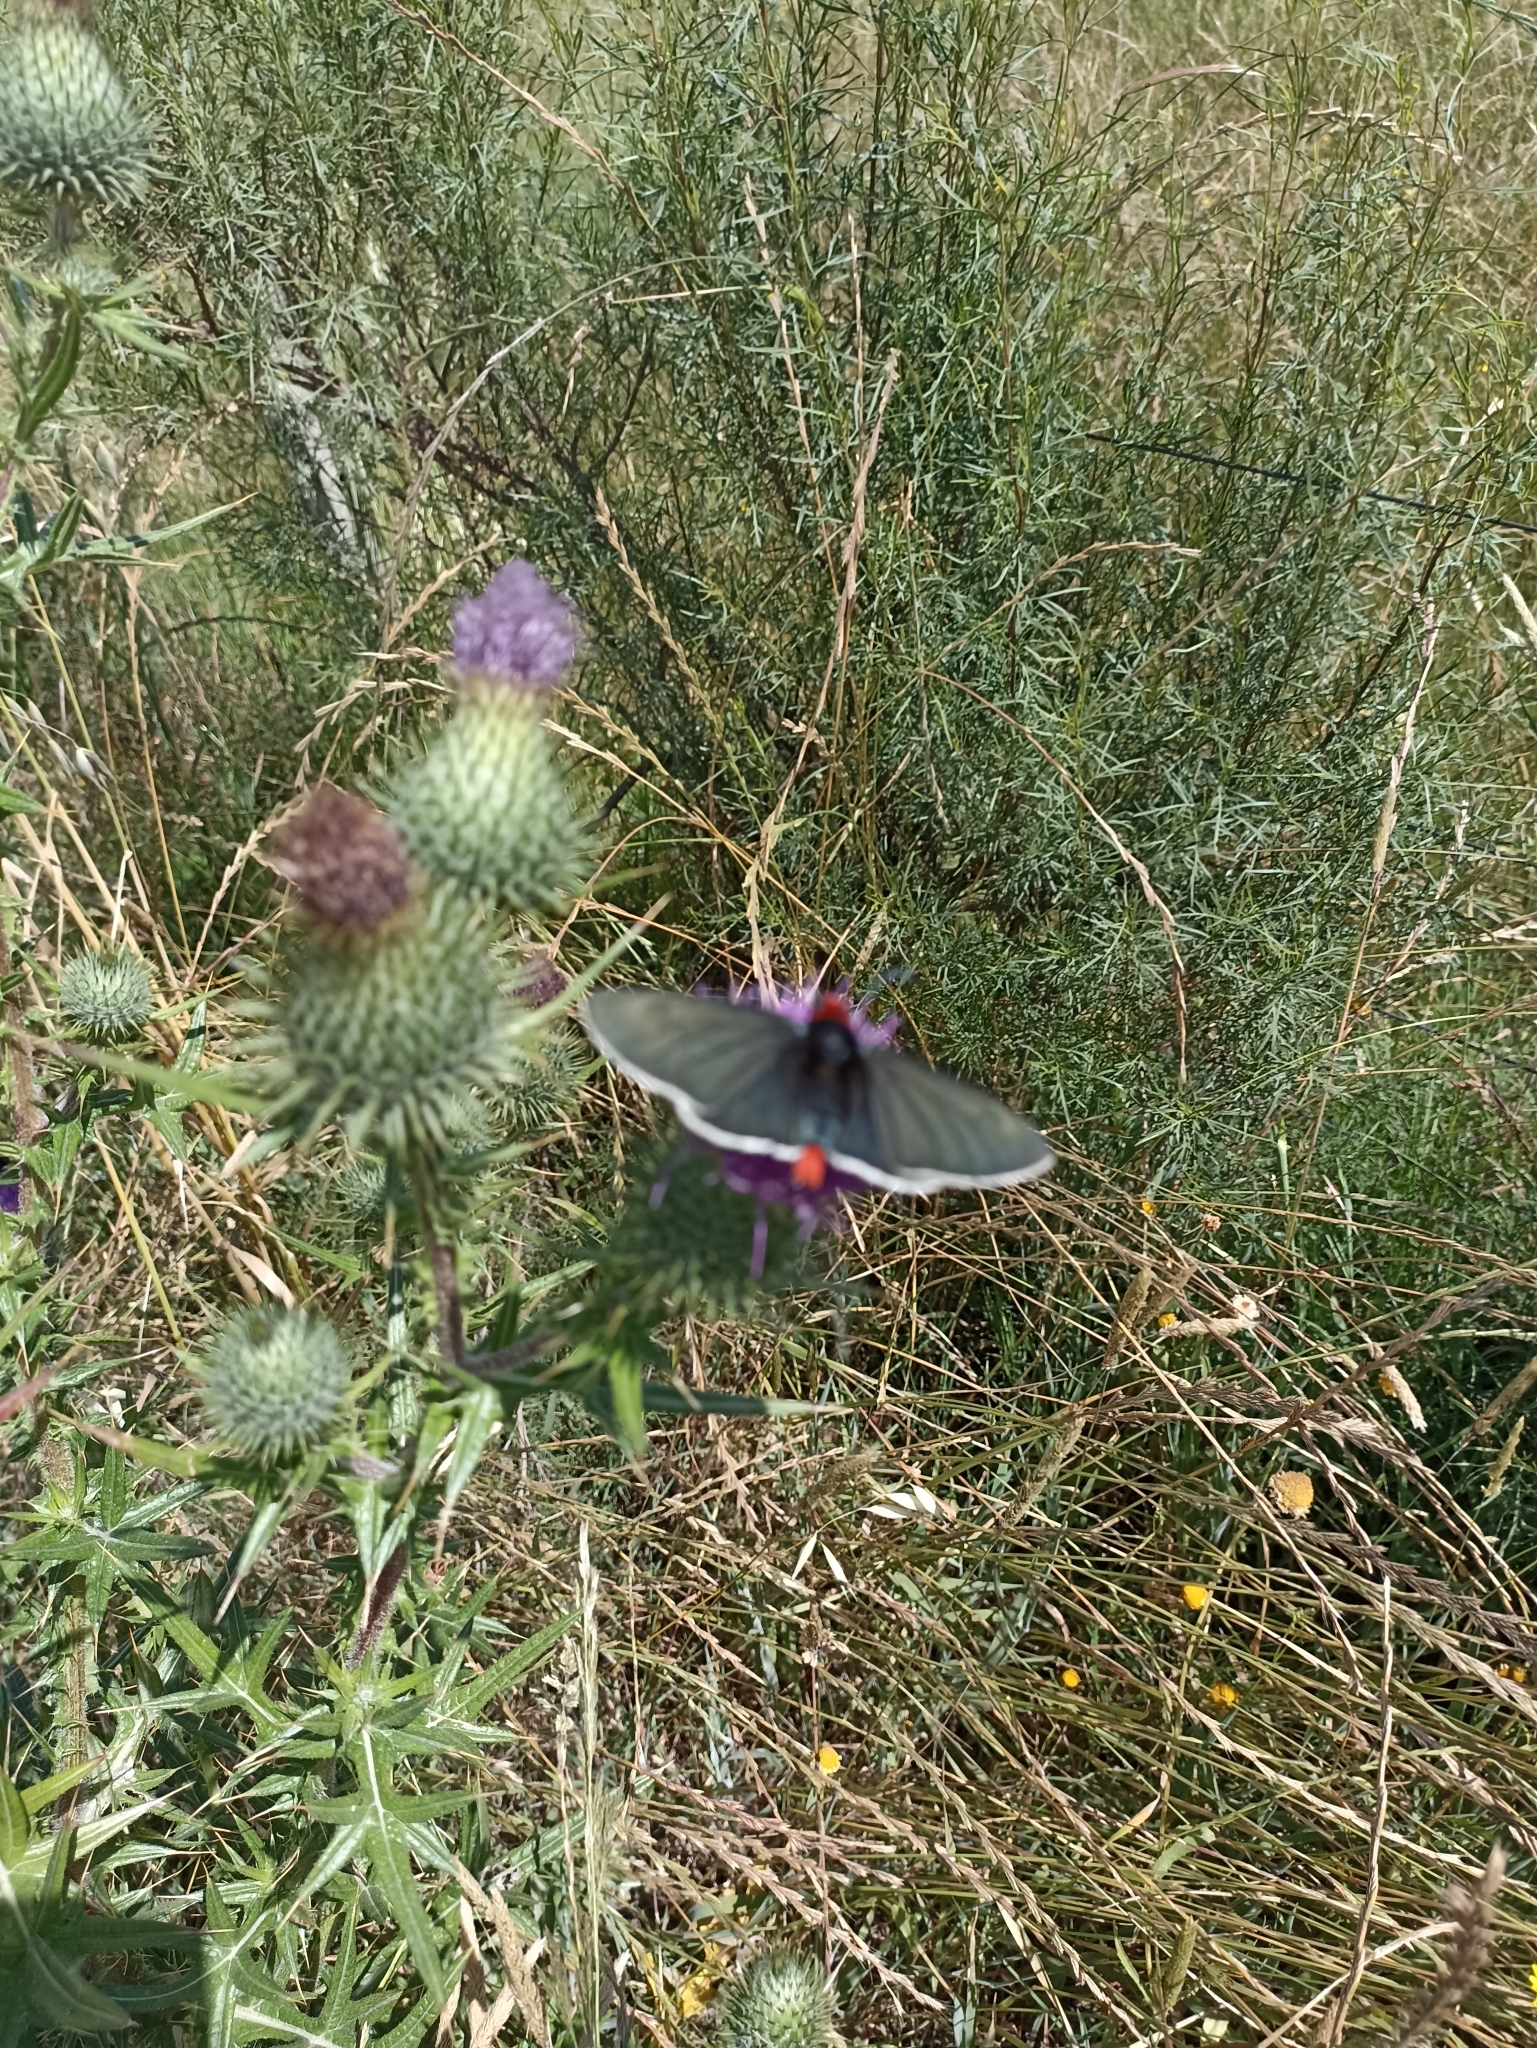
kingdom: Animalia
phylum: Arthropoda
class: Insecta
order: Lepidoptera
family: Hesperiidae
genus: Pyrrhopyge
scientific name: Pyrrhopyge charybdis
